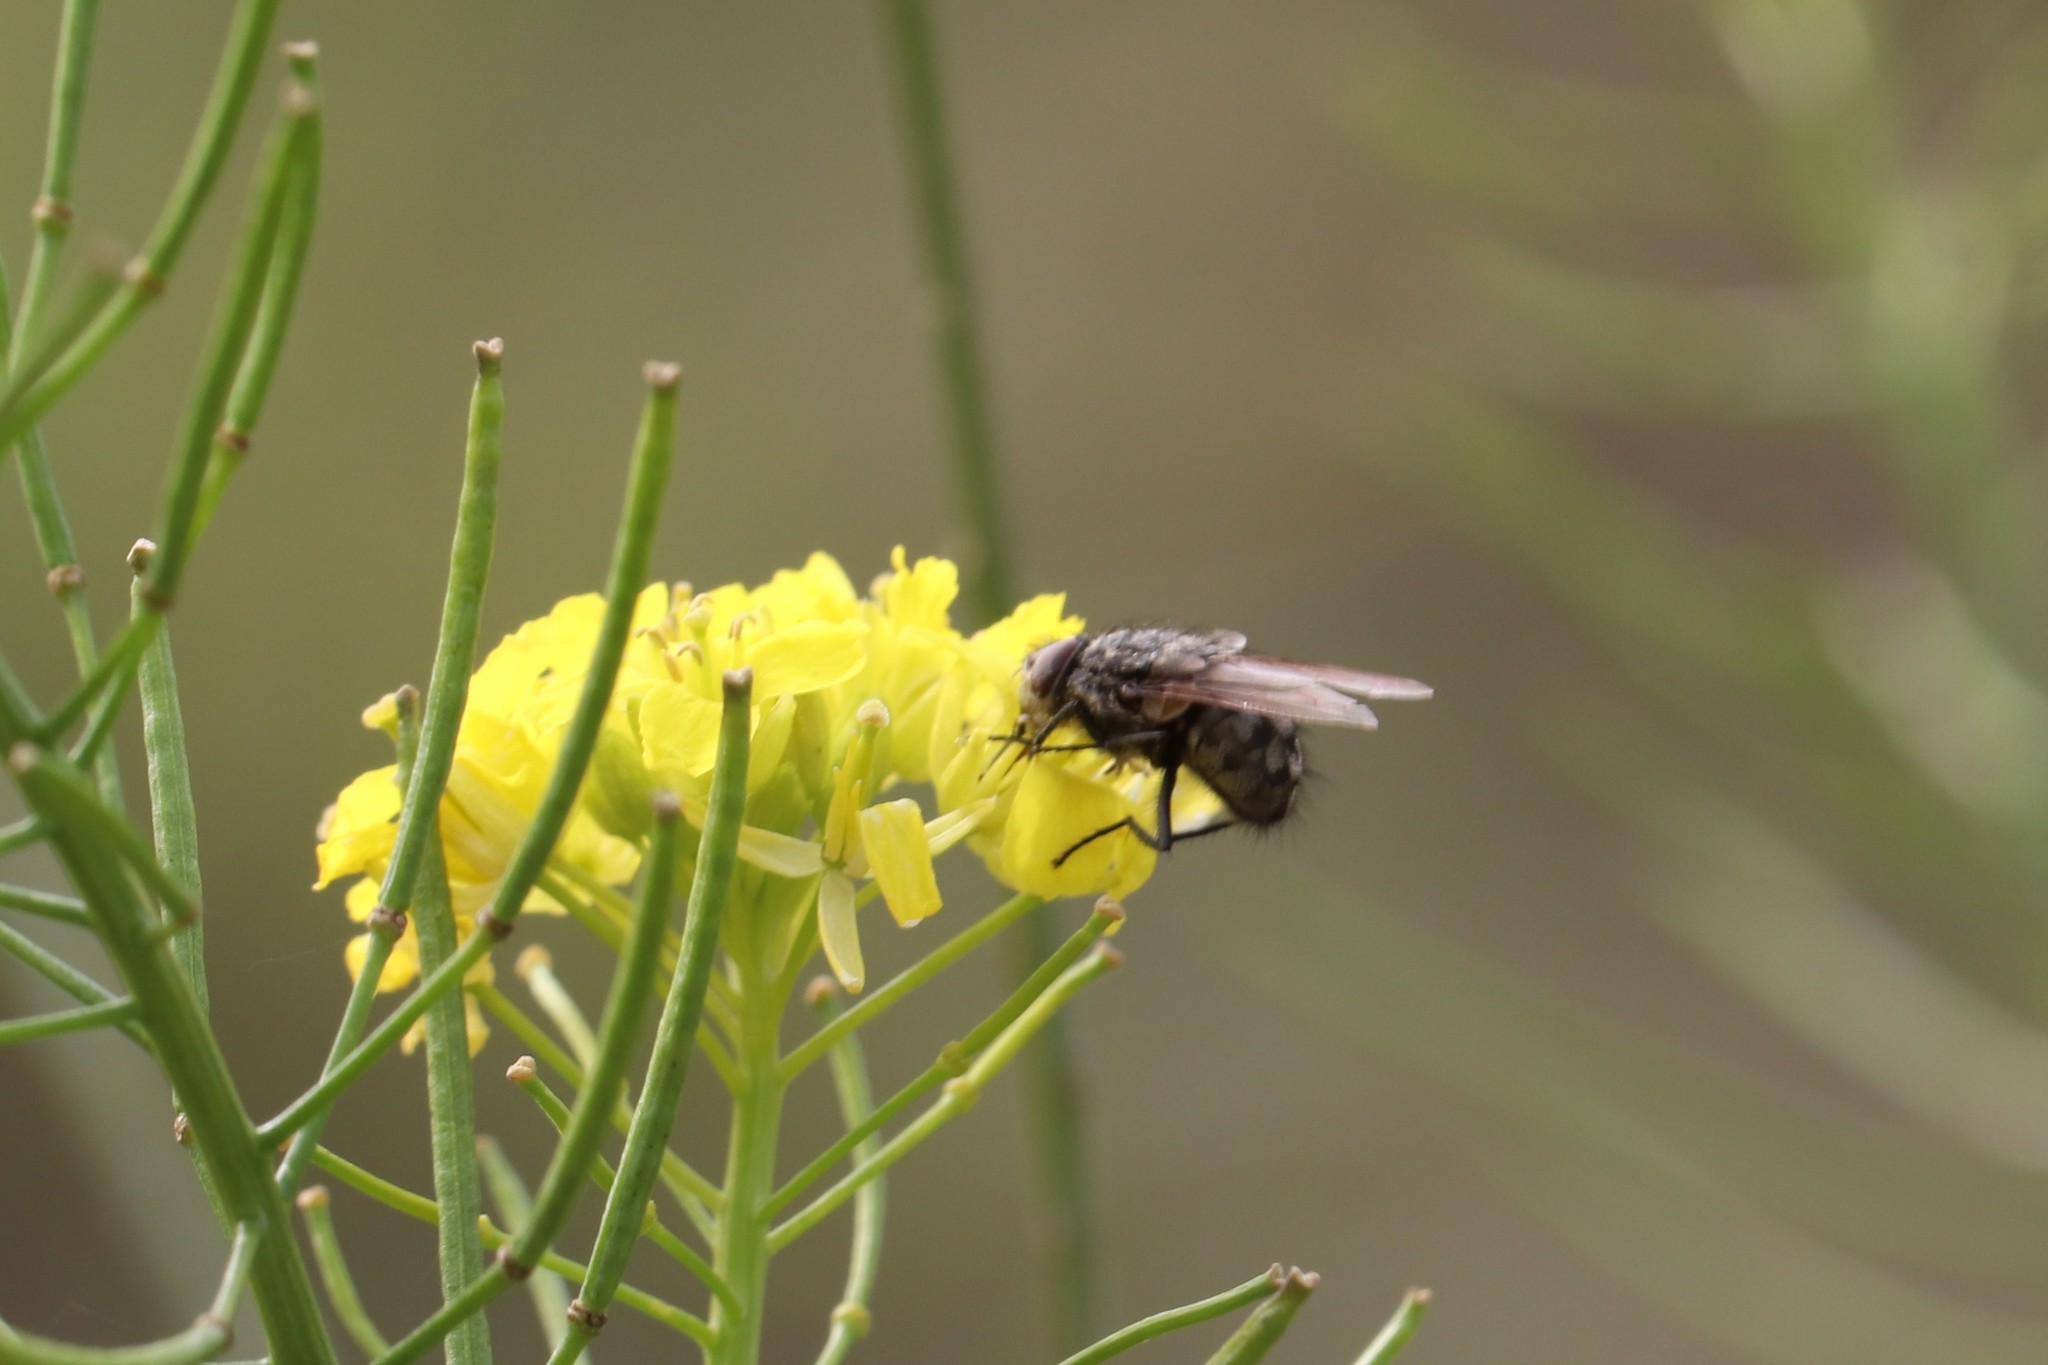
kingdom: Animalia
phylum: Arthropoda
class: Insecta
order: Diptera
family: Polleniidae
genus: Pollenia
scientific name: Pollenia
